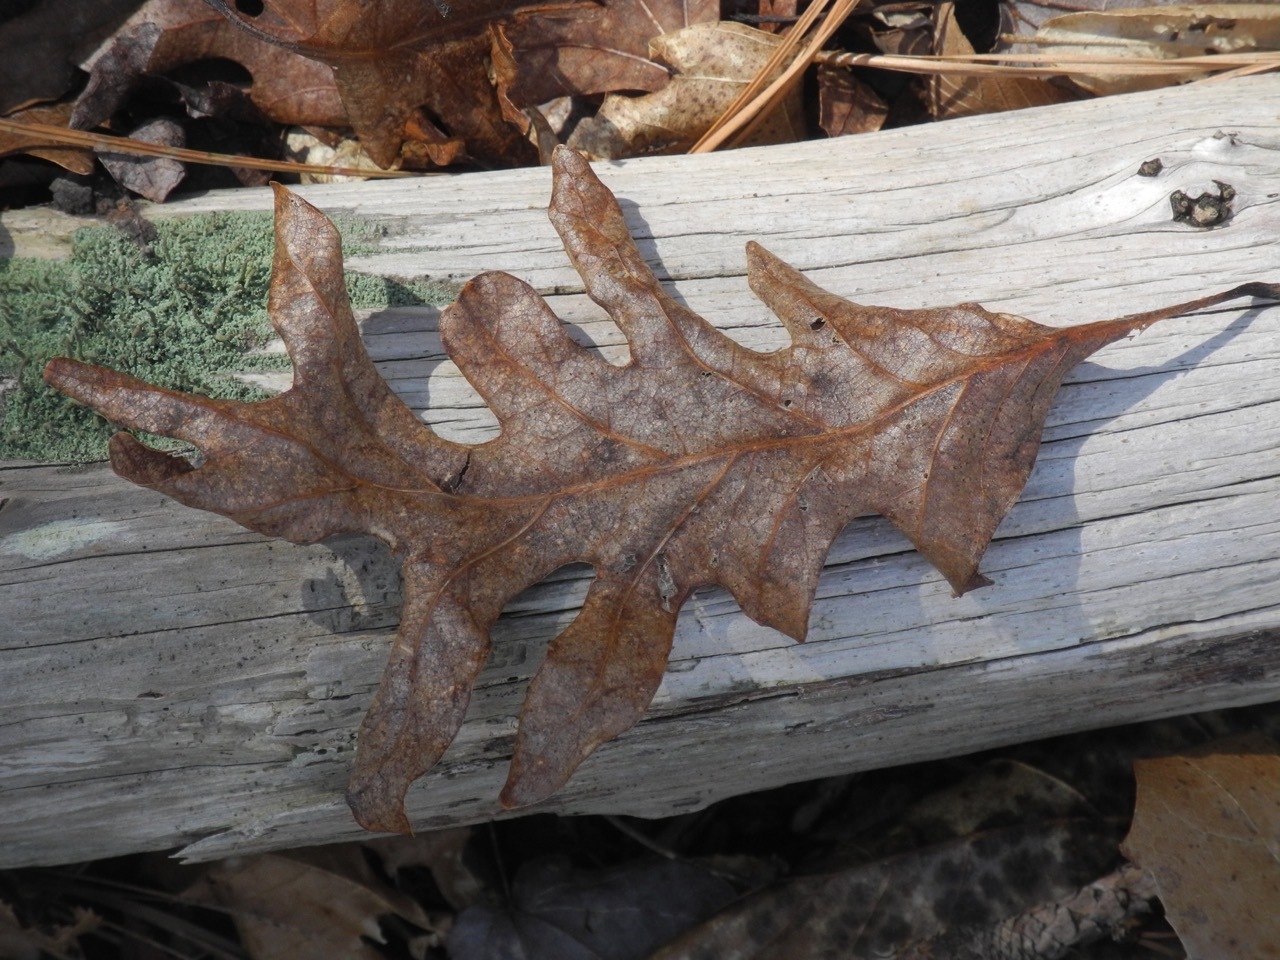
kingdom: Plantae
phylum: Tracheophyta
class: Magnoliopsida
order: Fagales
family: Fagaceae
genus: Quercus
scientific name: Quercus alba
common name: White oak
